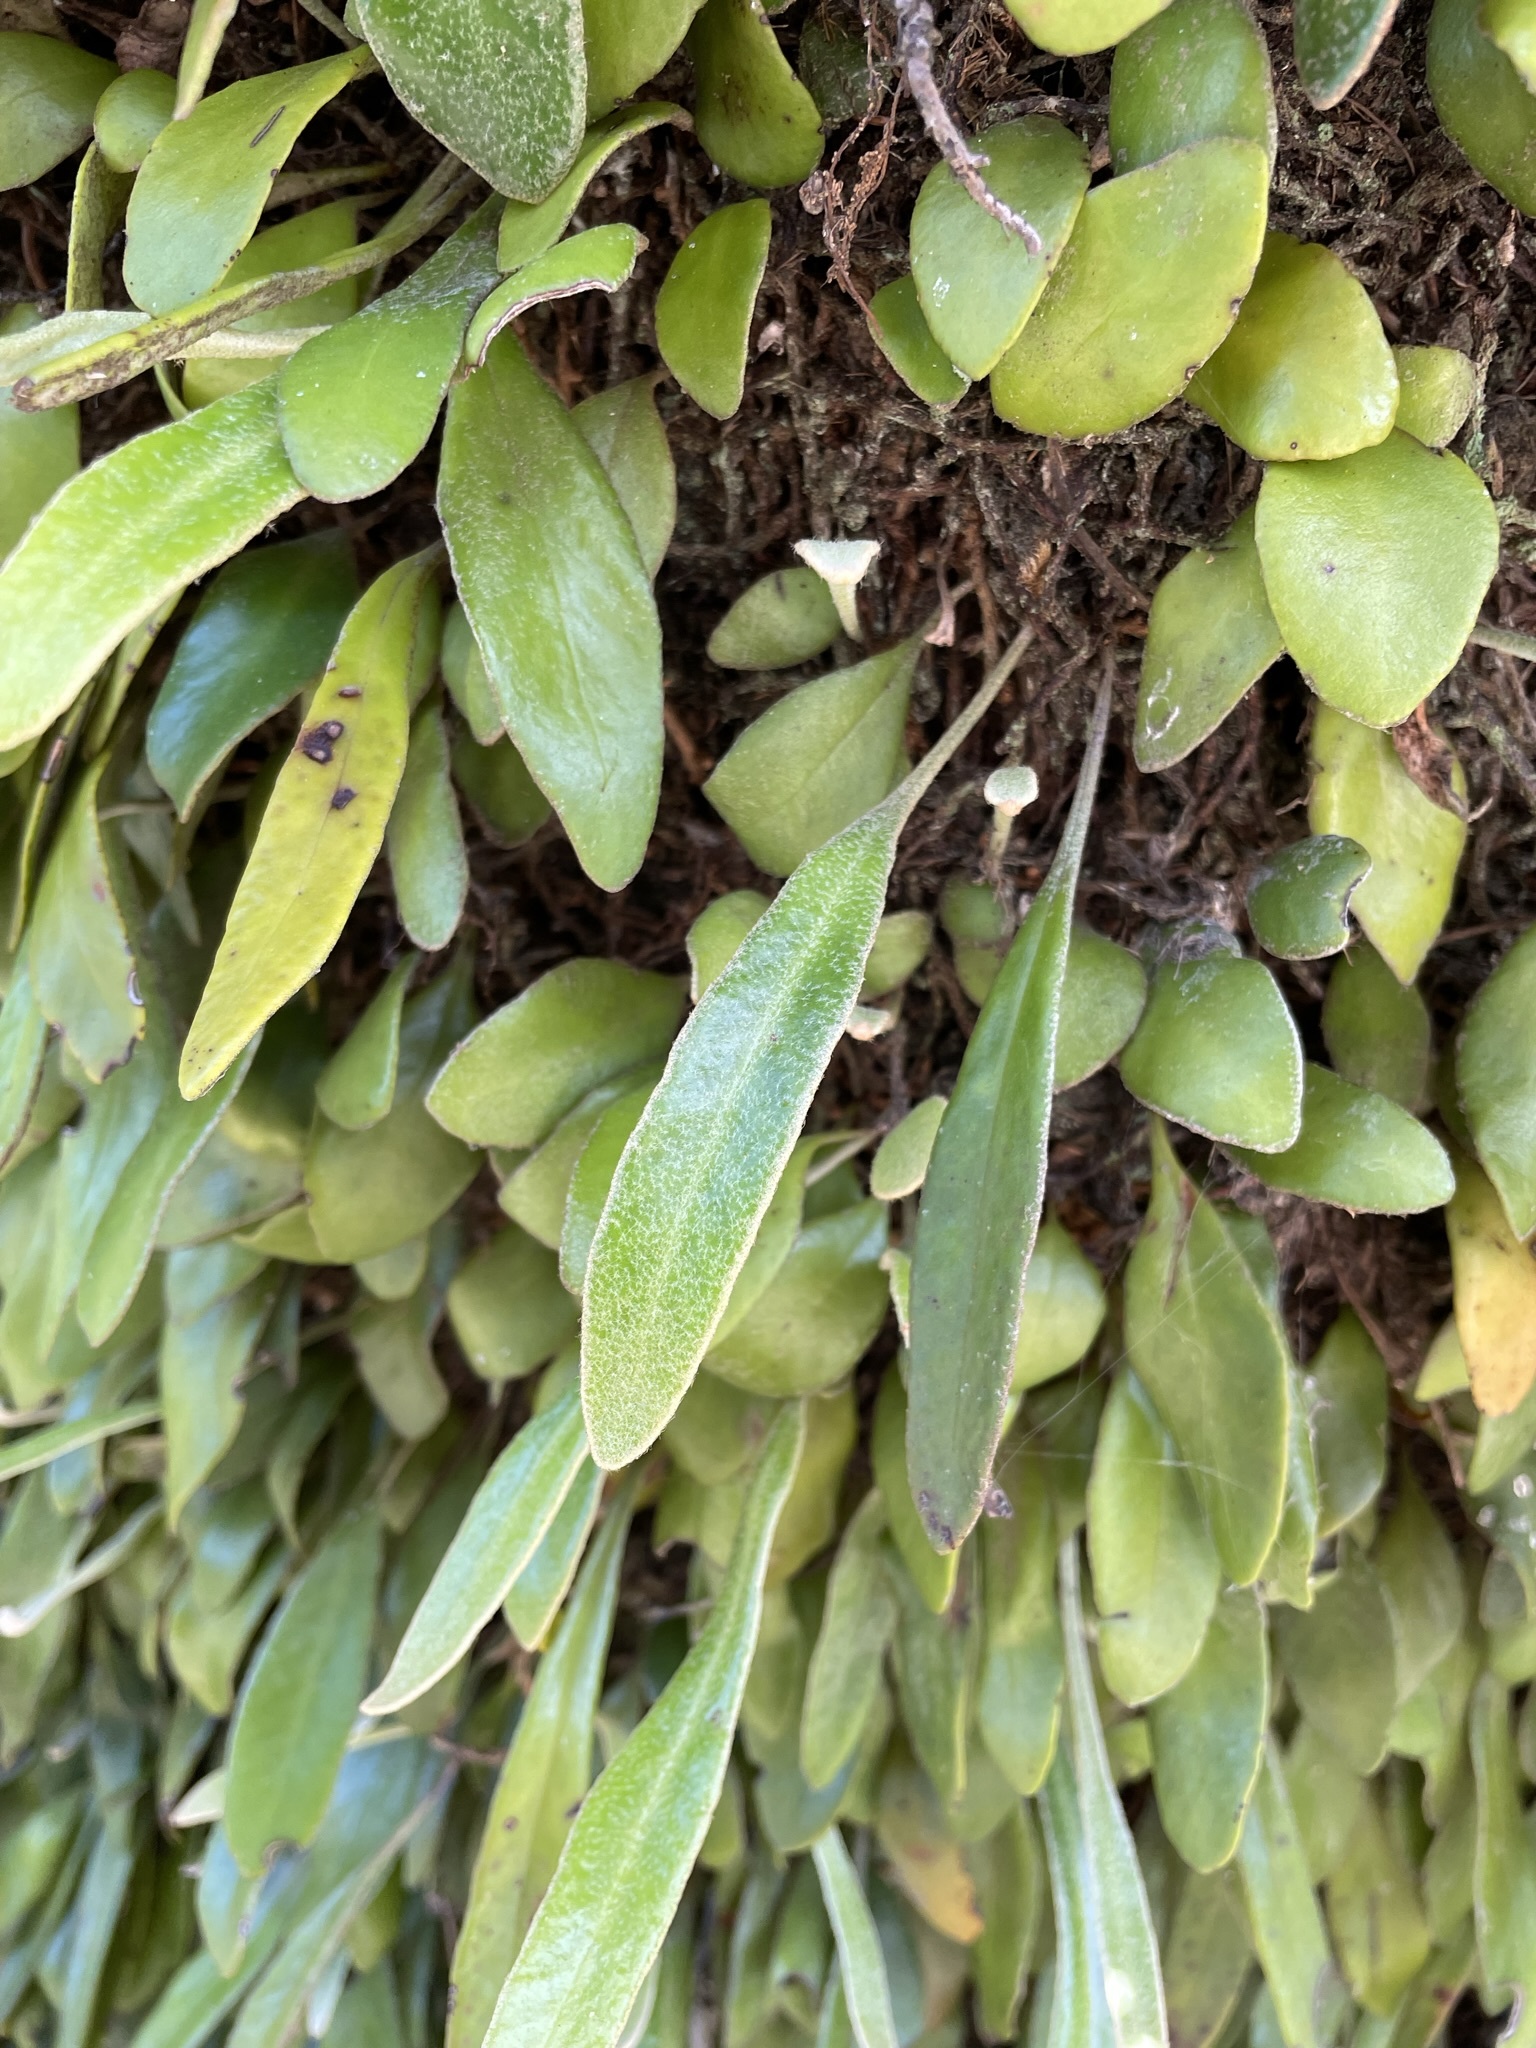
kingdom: Plantae
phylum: Tracheophyta
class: Polypodiopsida
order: Polypodiales
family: Polypodiaceae
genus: Pyrrosia
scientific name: Pyrrosia eleagnifolia
